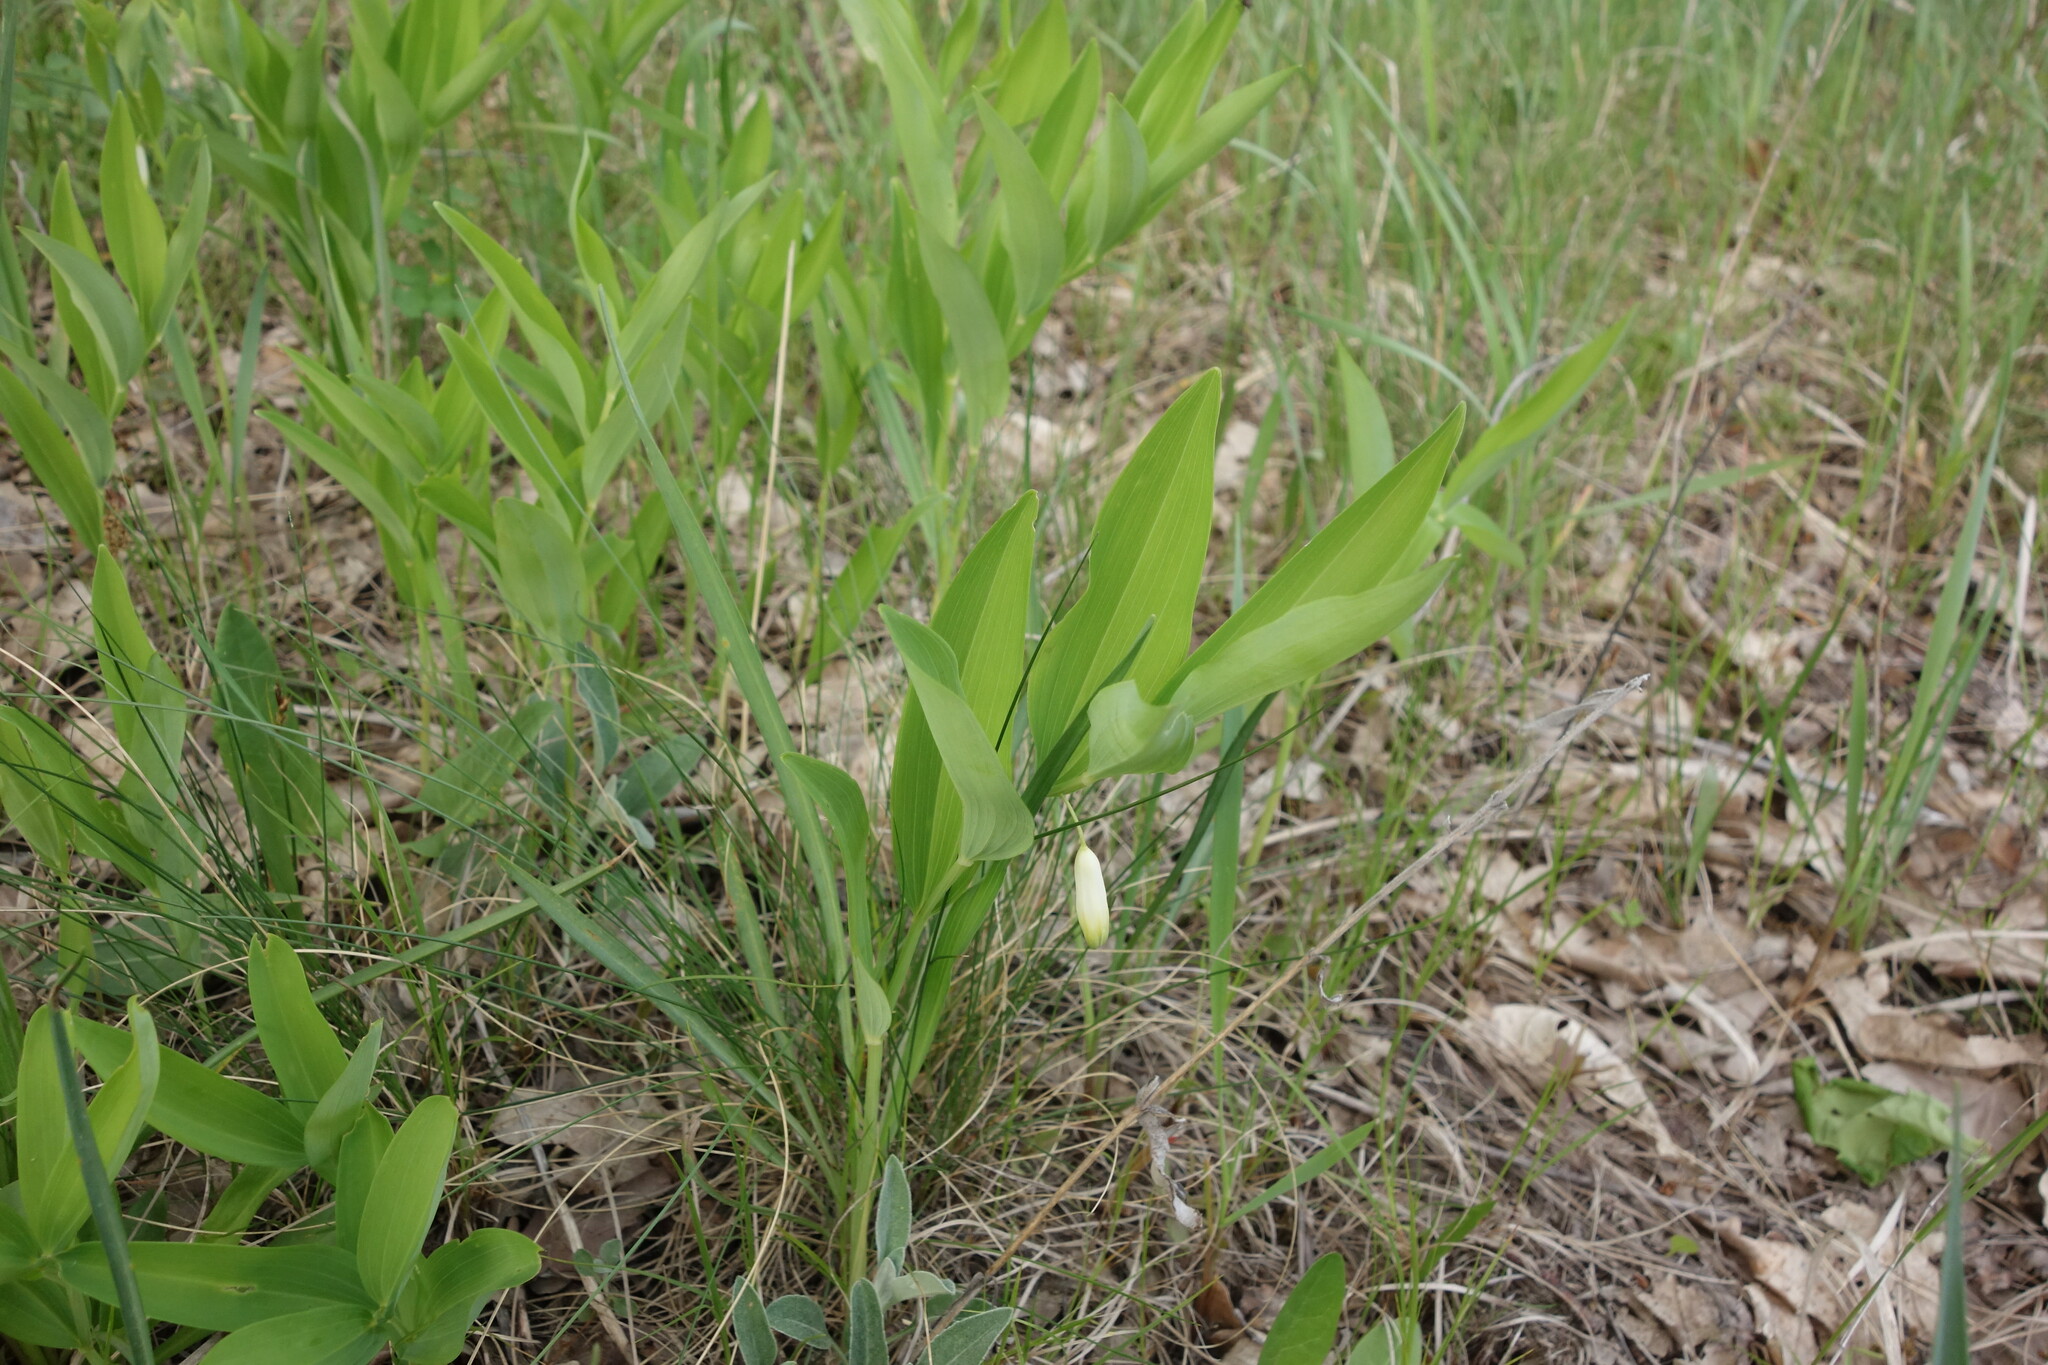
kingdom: Plantae
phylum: Tracheophyta
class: Liliopsida
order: Asparagales
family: Asparagaceae
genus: Polygonatum
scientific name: Polygonatum odoratum
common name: Angular solomon's-seal
